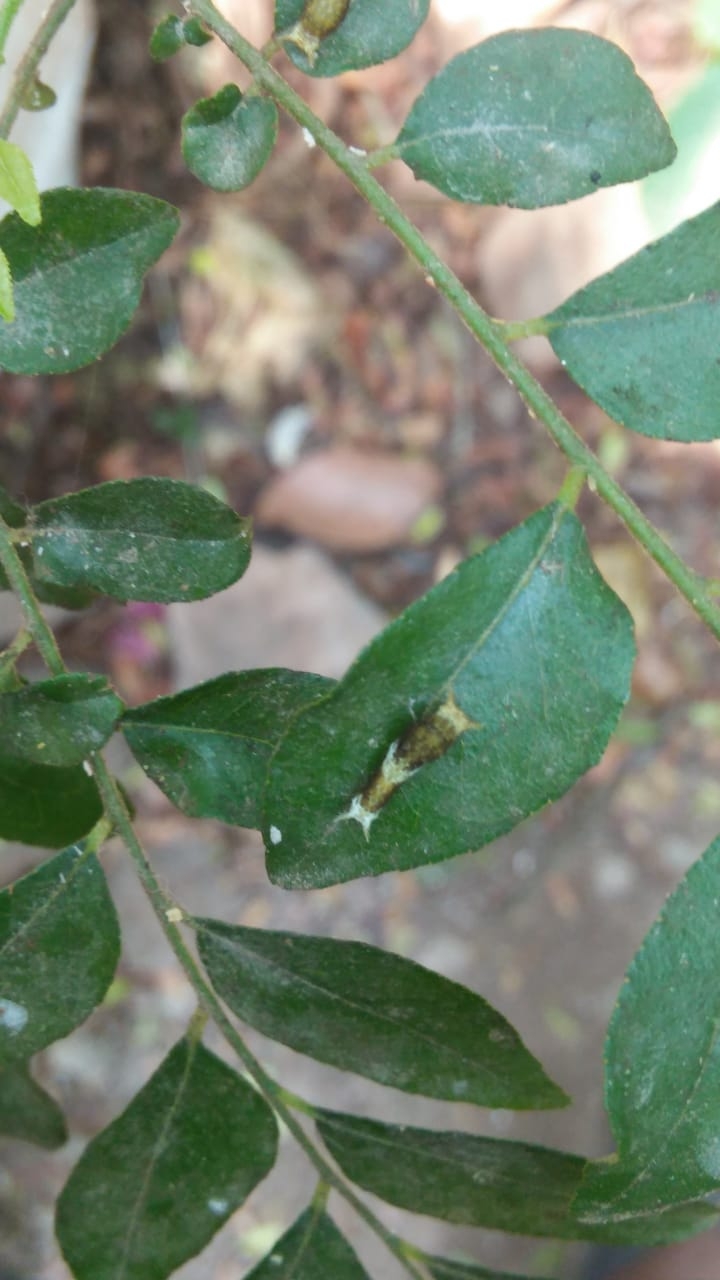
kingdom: Animalia
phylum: Arthropoda
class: Insecta
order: Lepidoptera
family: Papilionidae
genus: Papilio
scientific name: Papilio polytes
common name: Common mormon
